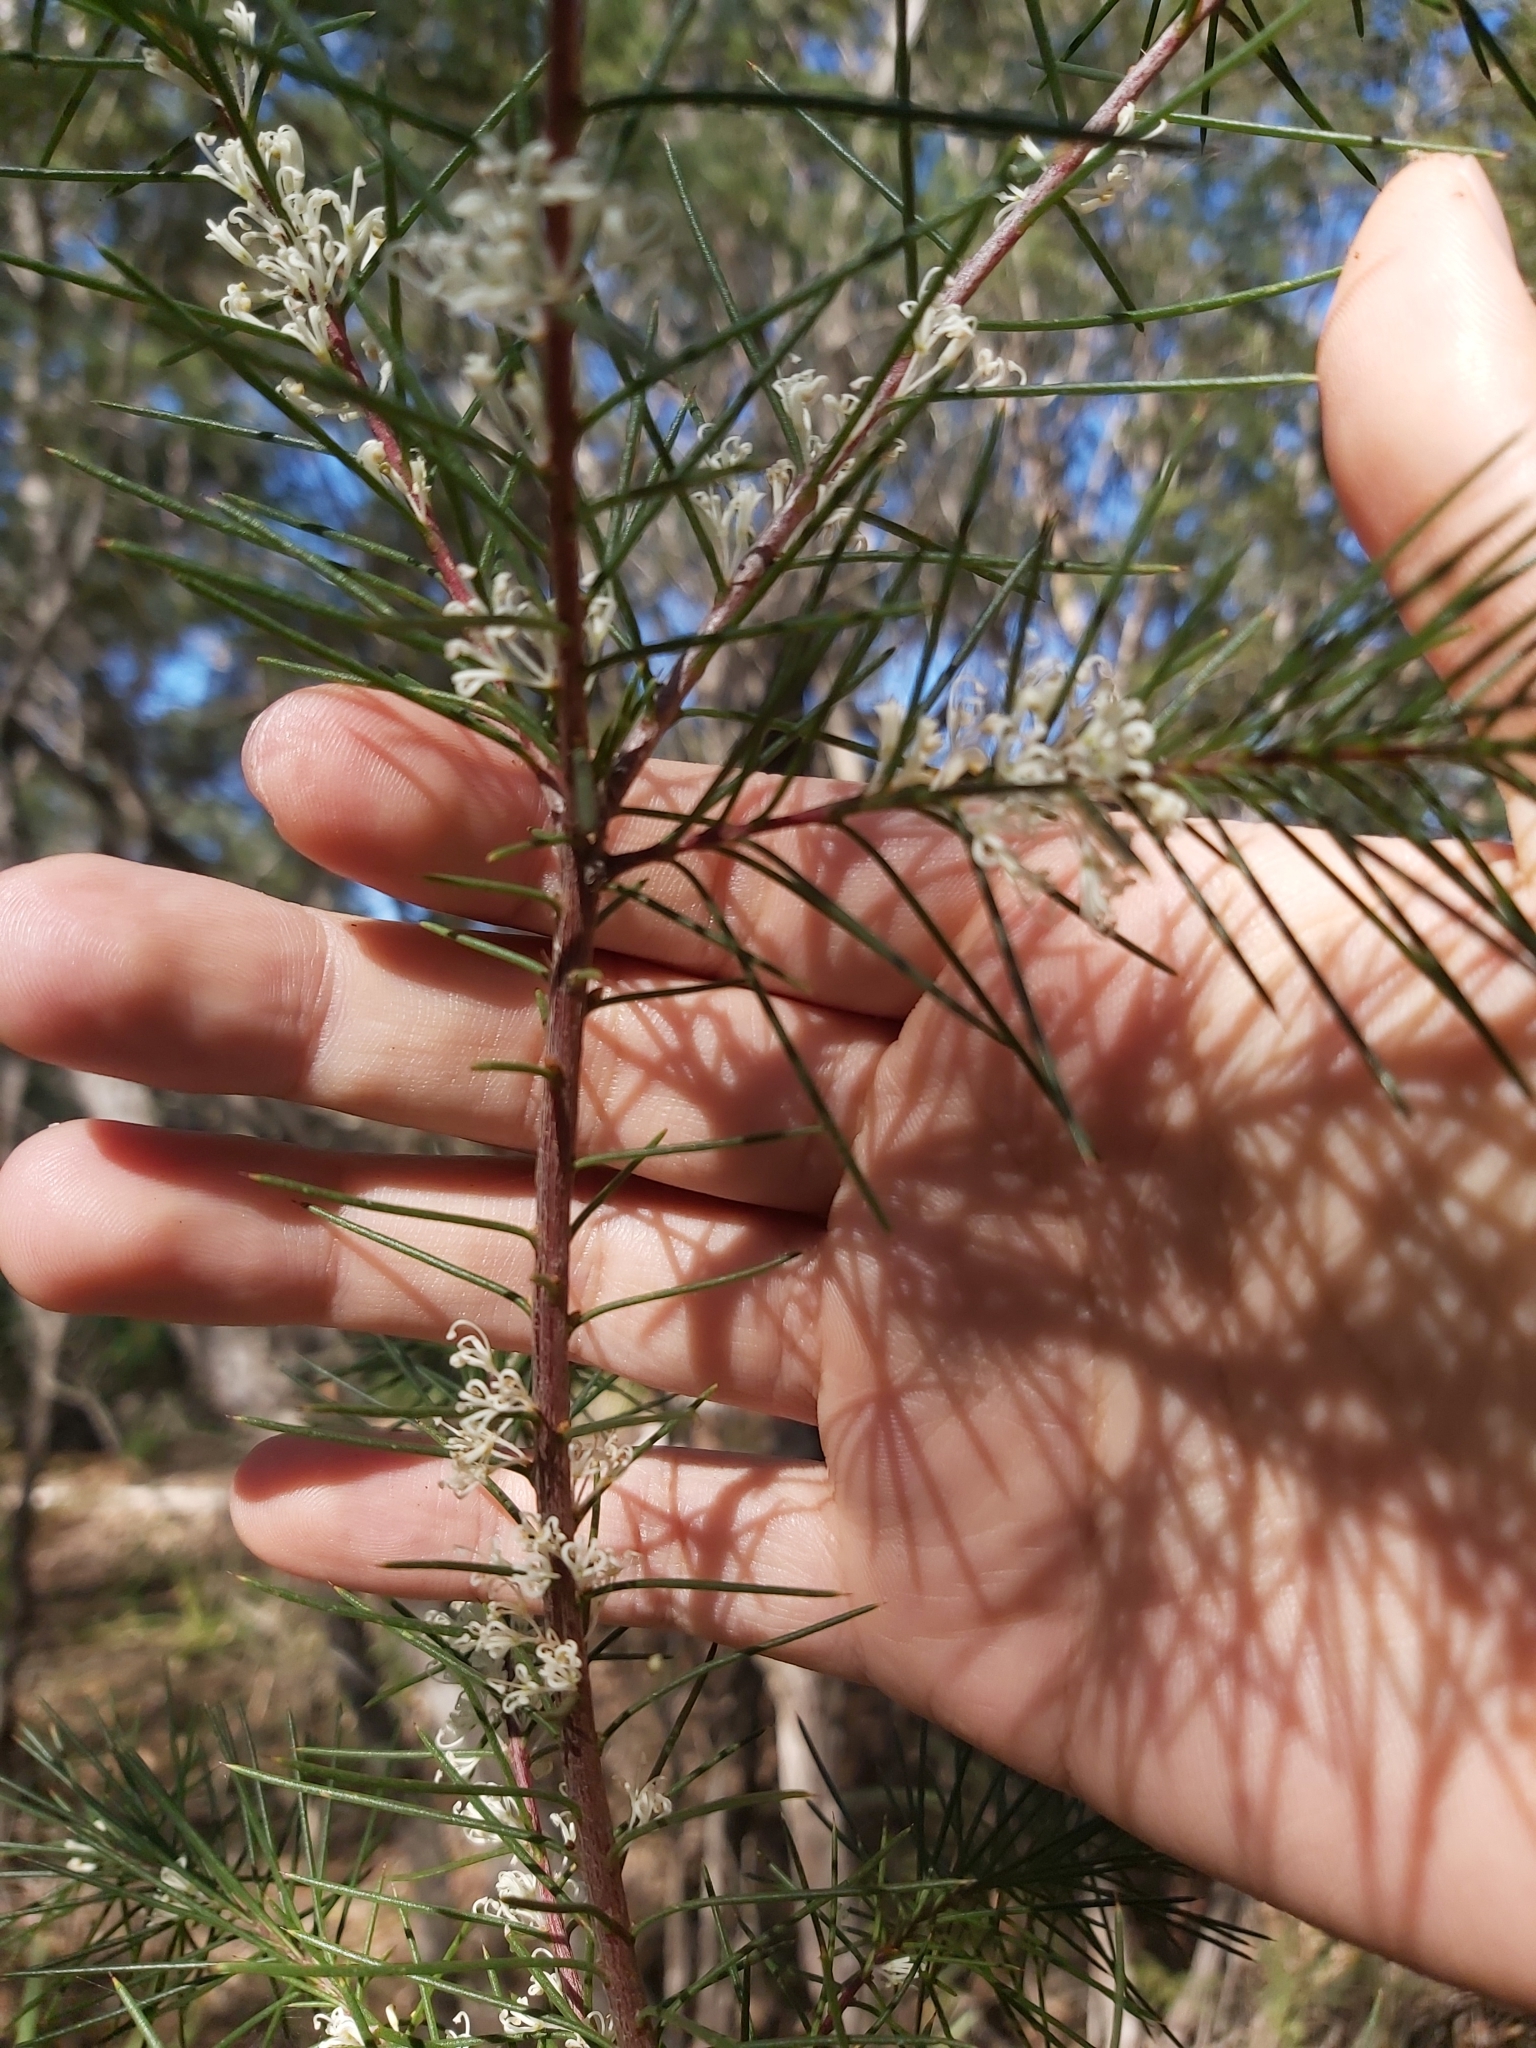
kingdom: Plantae
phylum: Tracheophyta
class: Magnoliopsida
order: Proteales
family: Proteaceae
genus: Hakea
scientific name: Hakea sericea
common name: Needle bush
